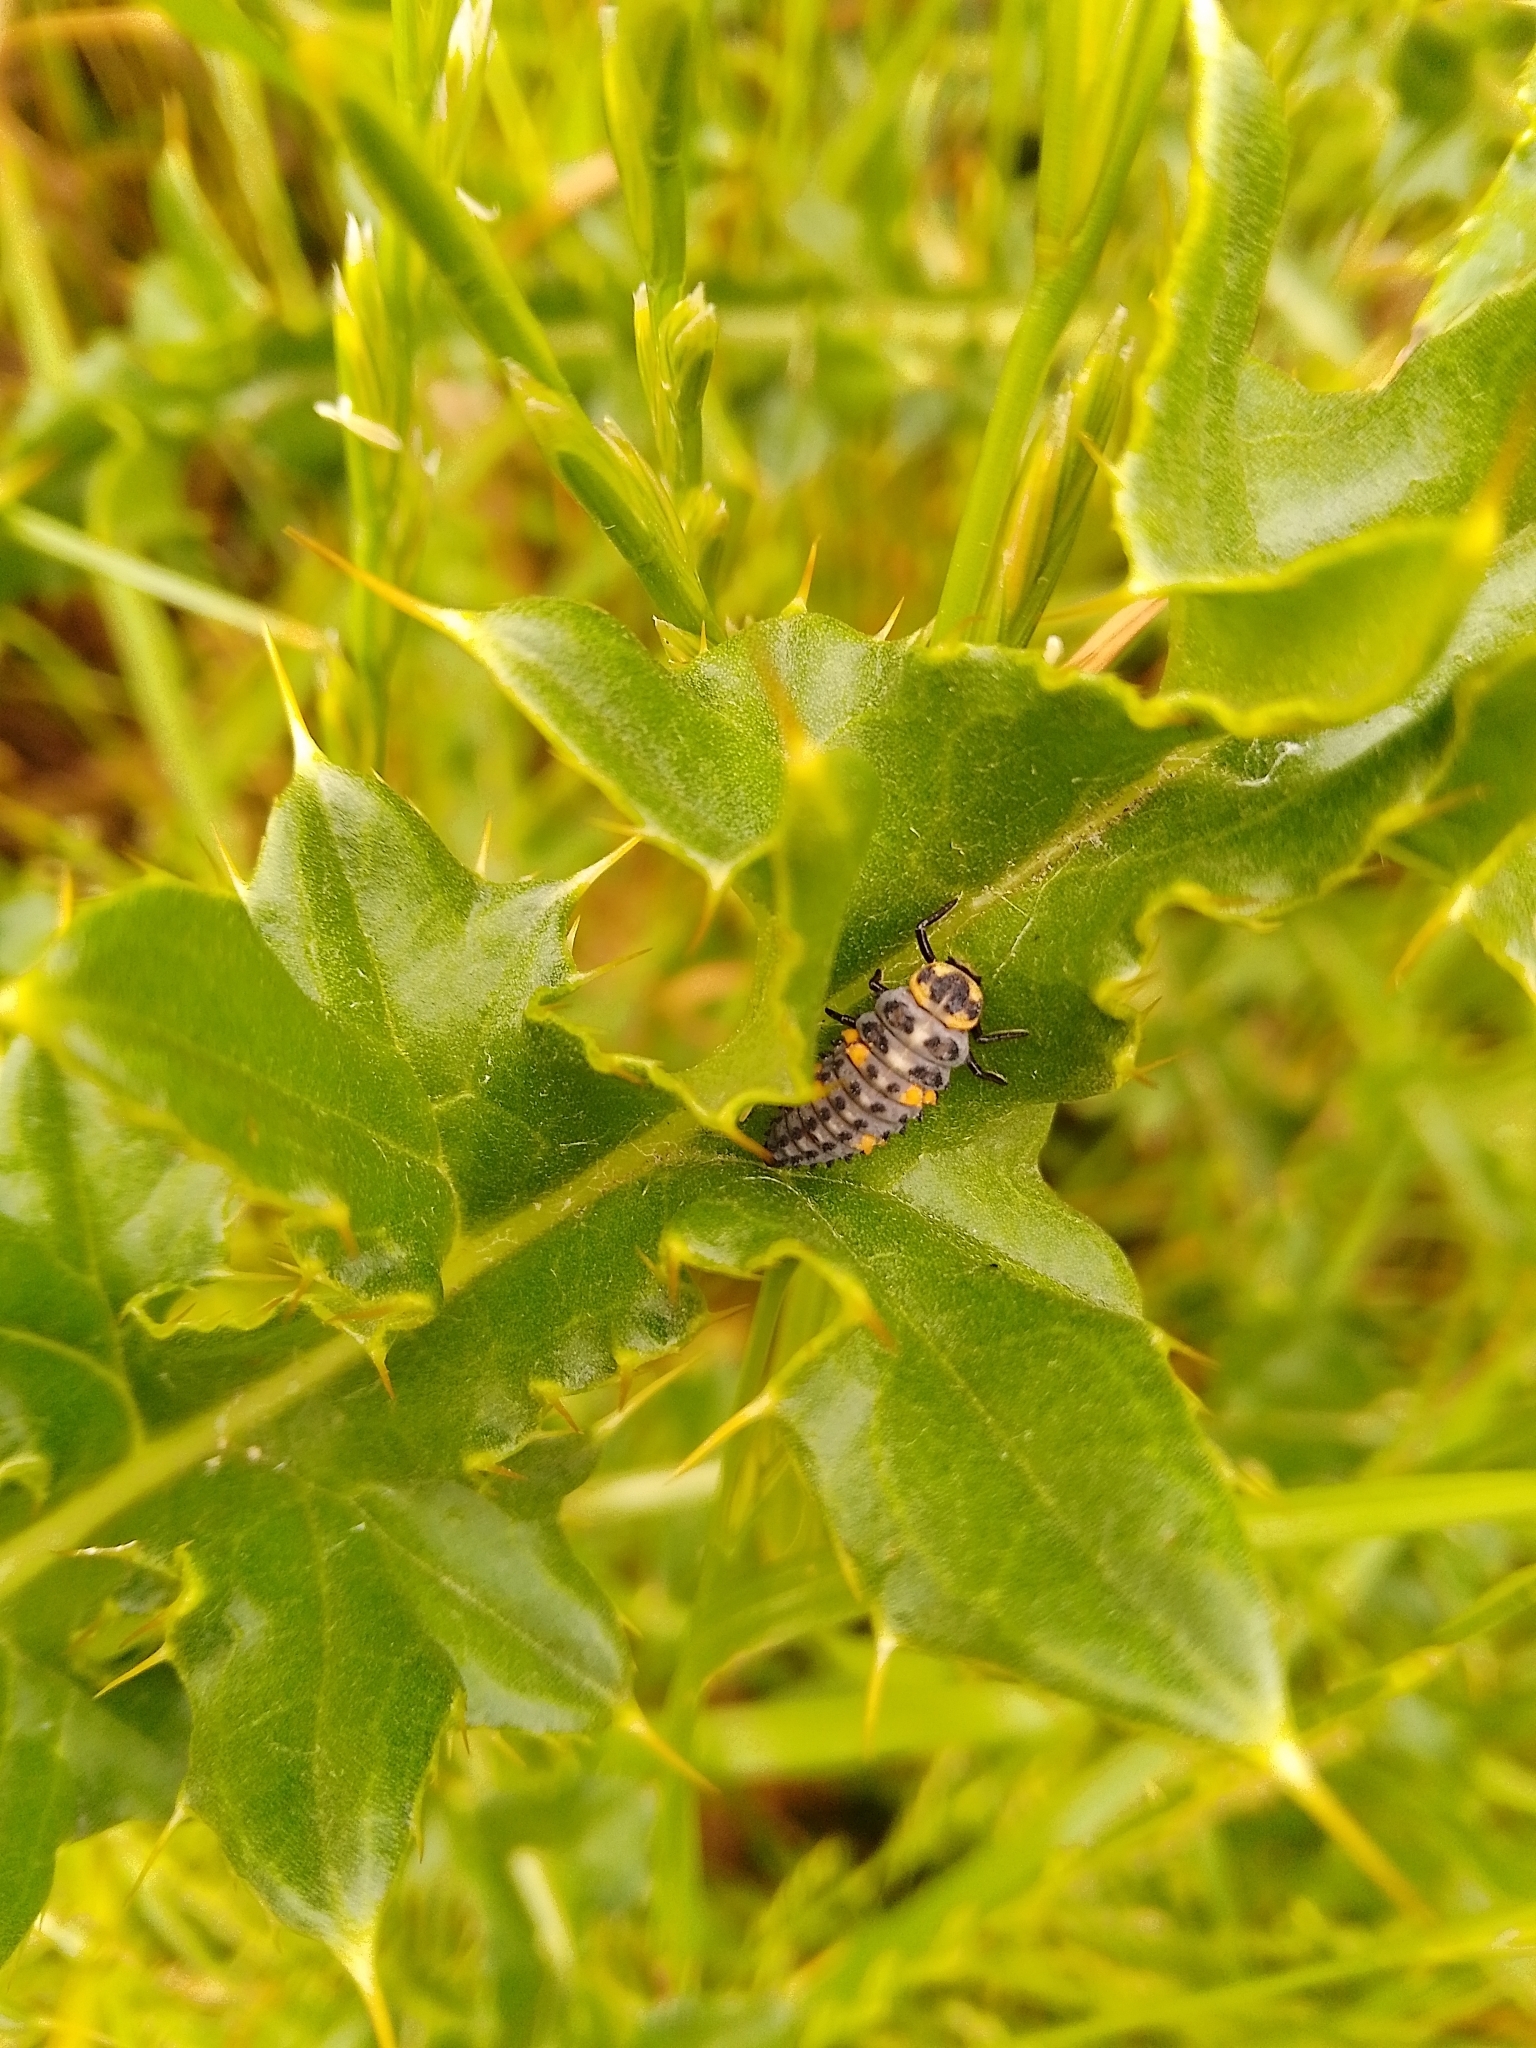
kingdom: Animalia
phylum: Arthropoda
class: Insecta
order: Coleoptera
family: Coccinellidae
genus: Coccinella
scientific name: Coccinella septempunctata
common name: Sevenspotted lady beetle
